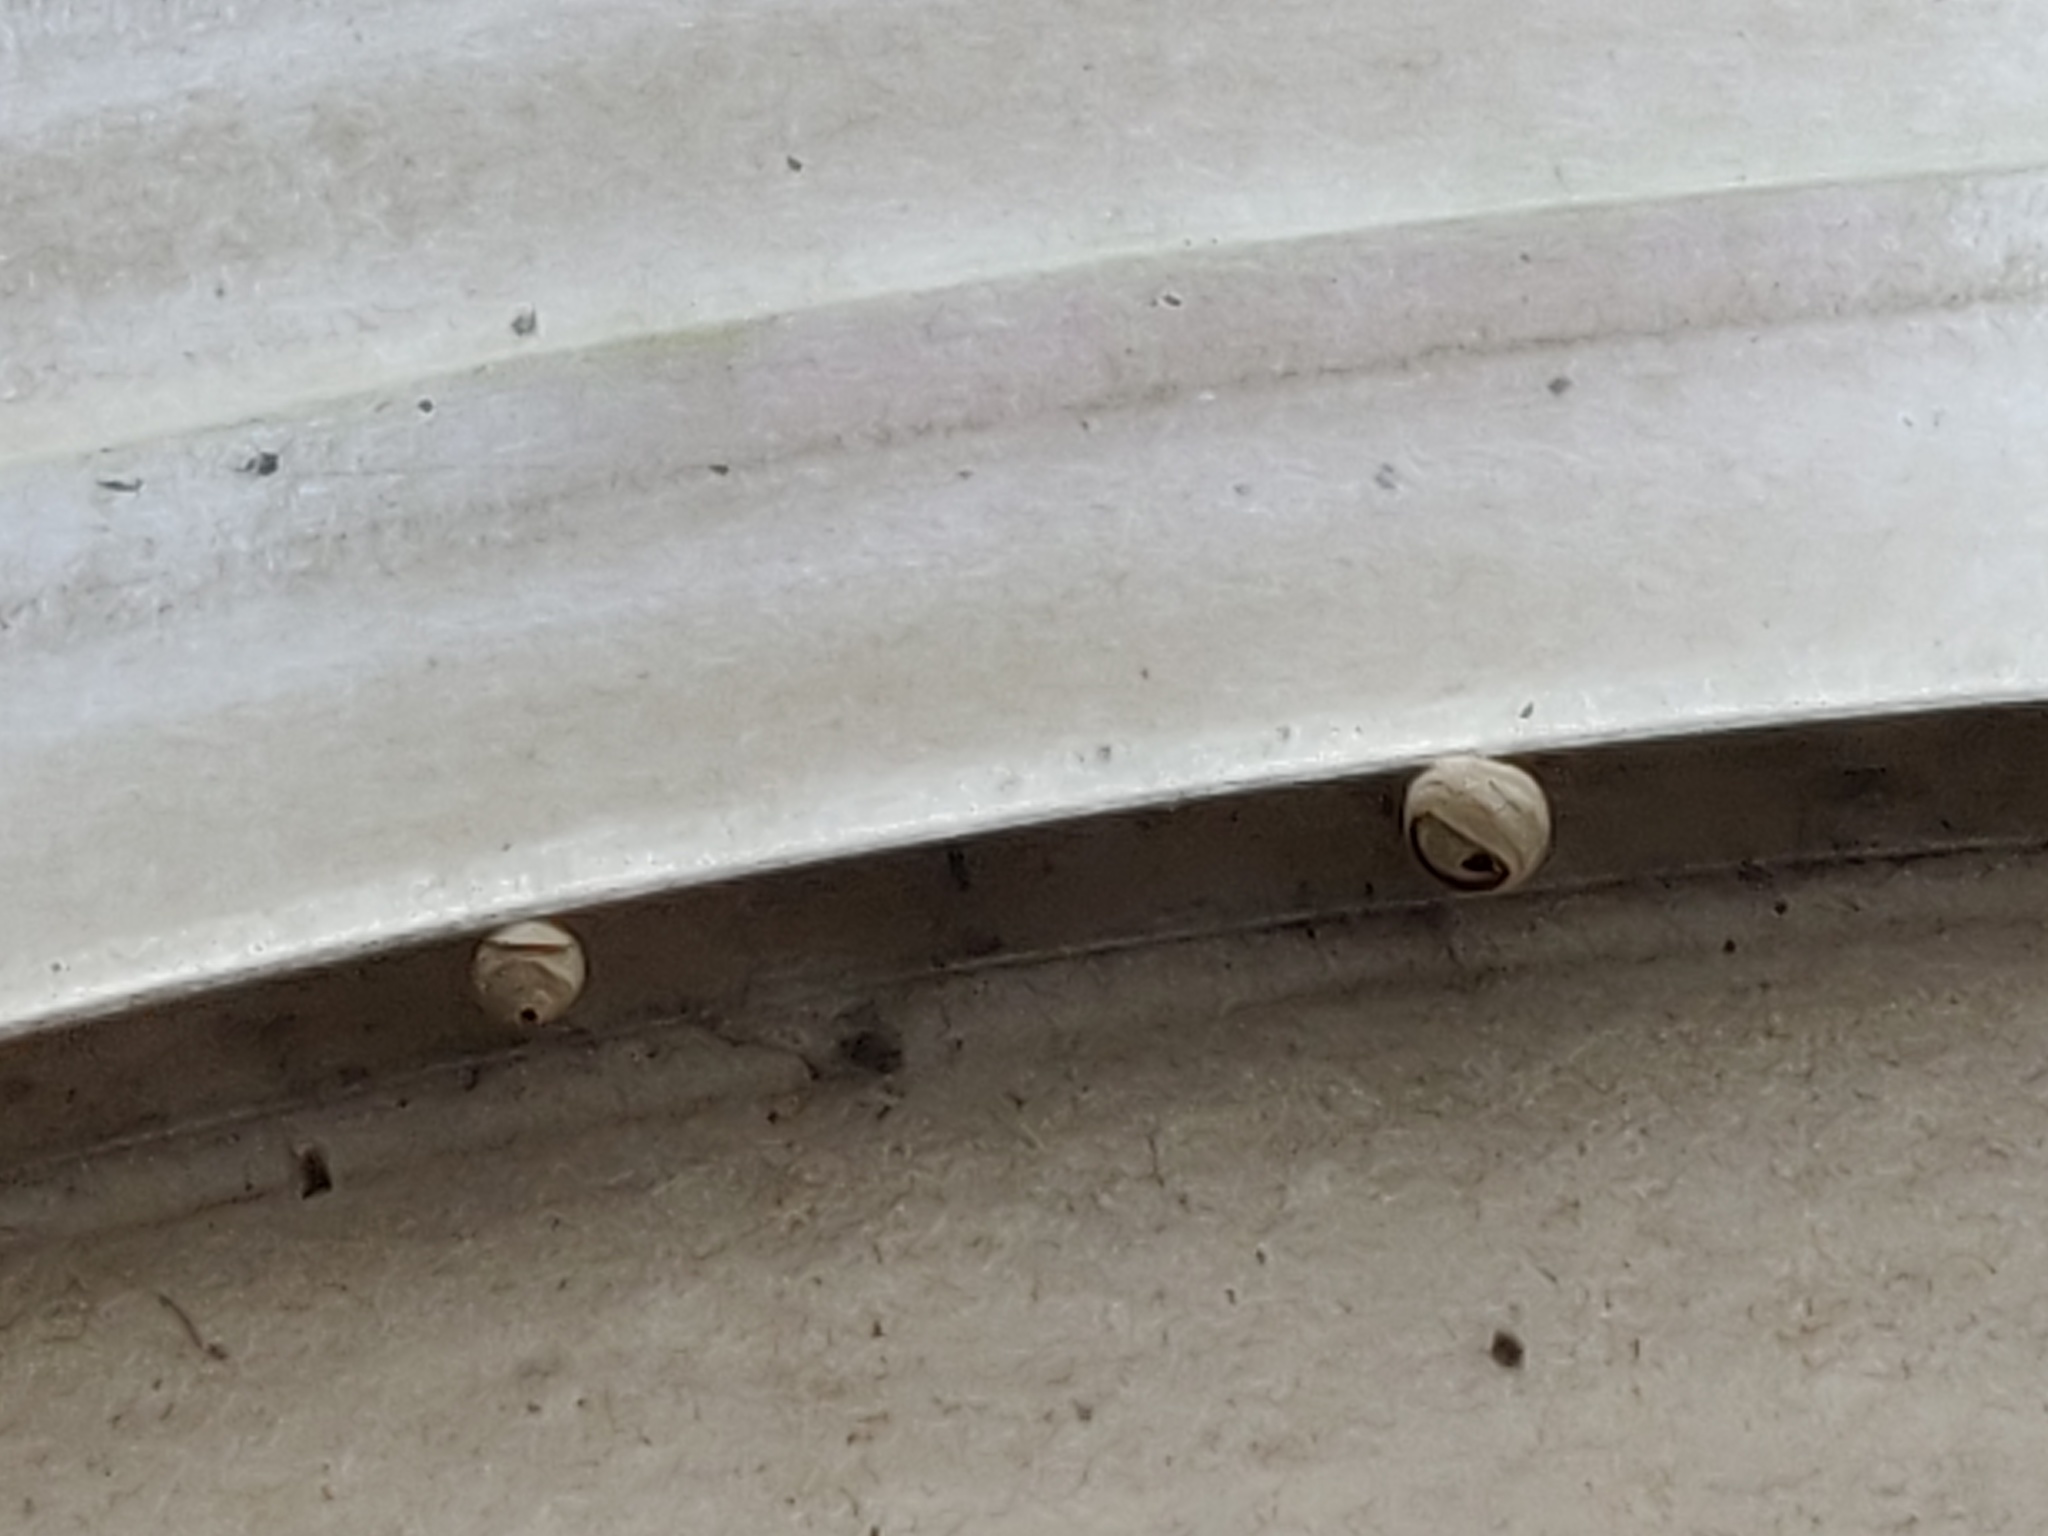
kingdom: Animalia
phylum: Arthropoda
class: Insecta
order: Hymenoptera
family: Vespidae
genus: Vespa
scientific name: Vespa velutina
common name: Asian hornet
